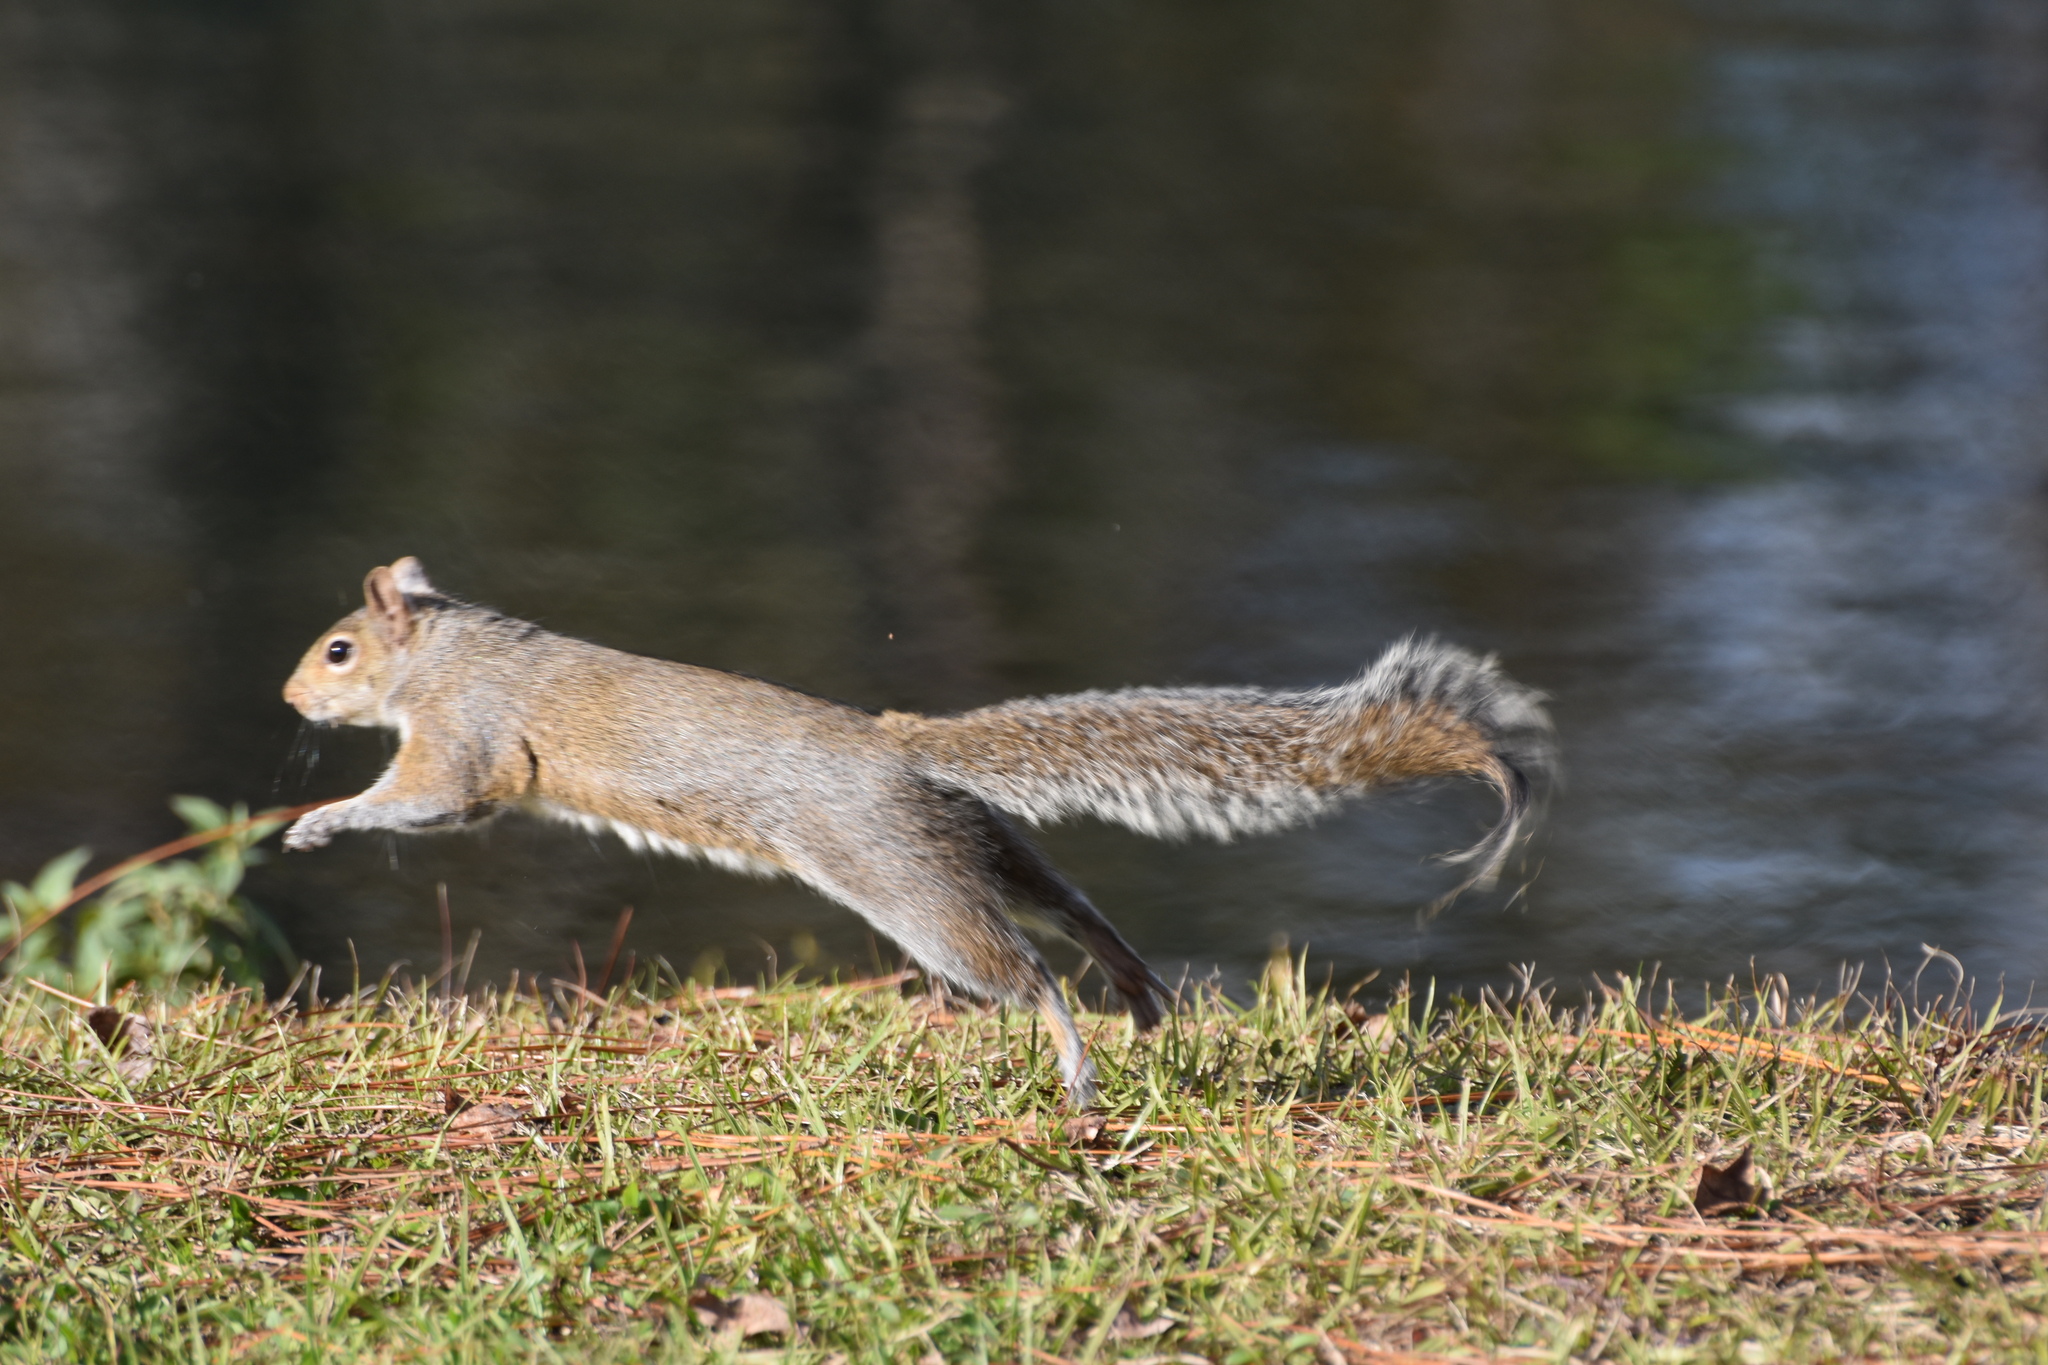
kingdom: Animalia
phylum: Chordata
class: Mammalia
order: Rodentia
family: Sciuridae
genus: Sciurus
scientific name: Sciurus carolinensis
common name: Eastern gray squirrel
